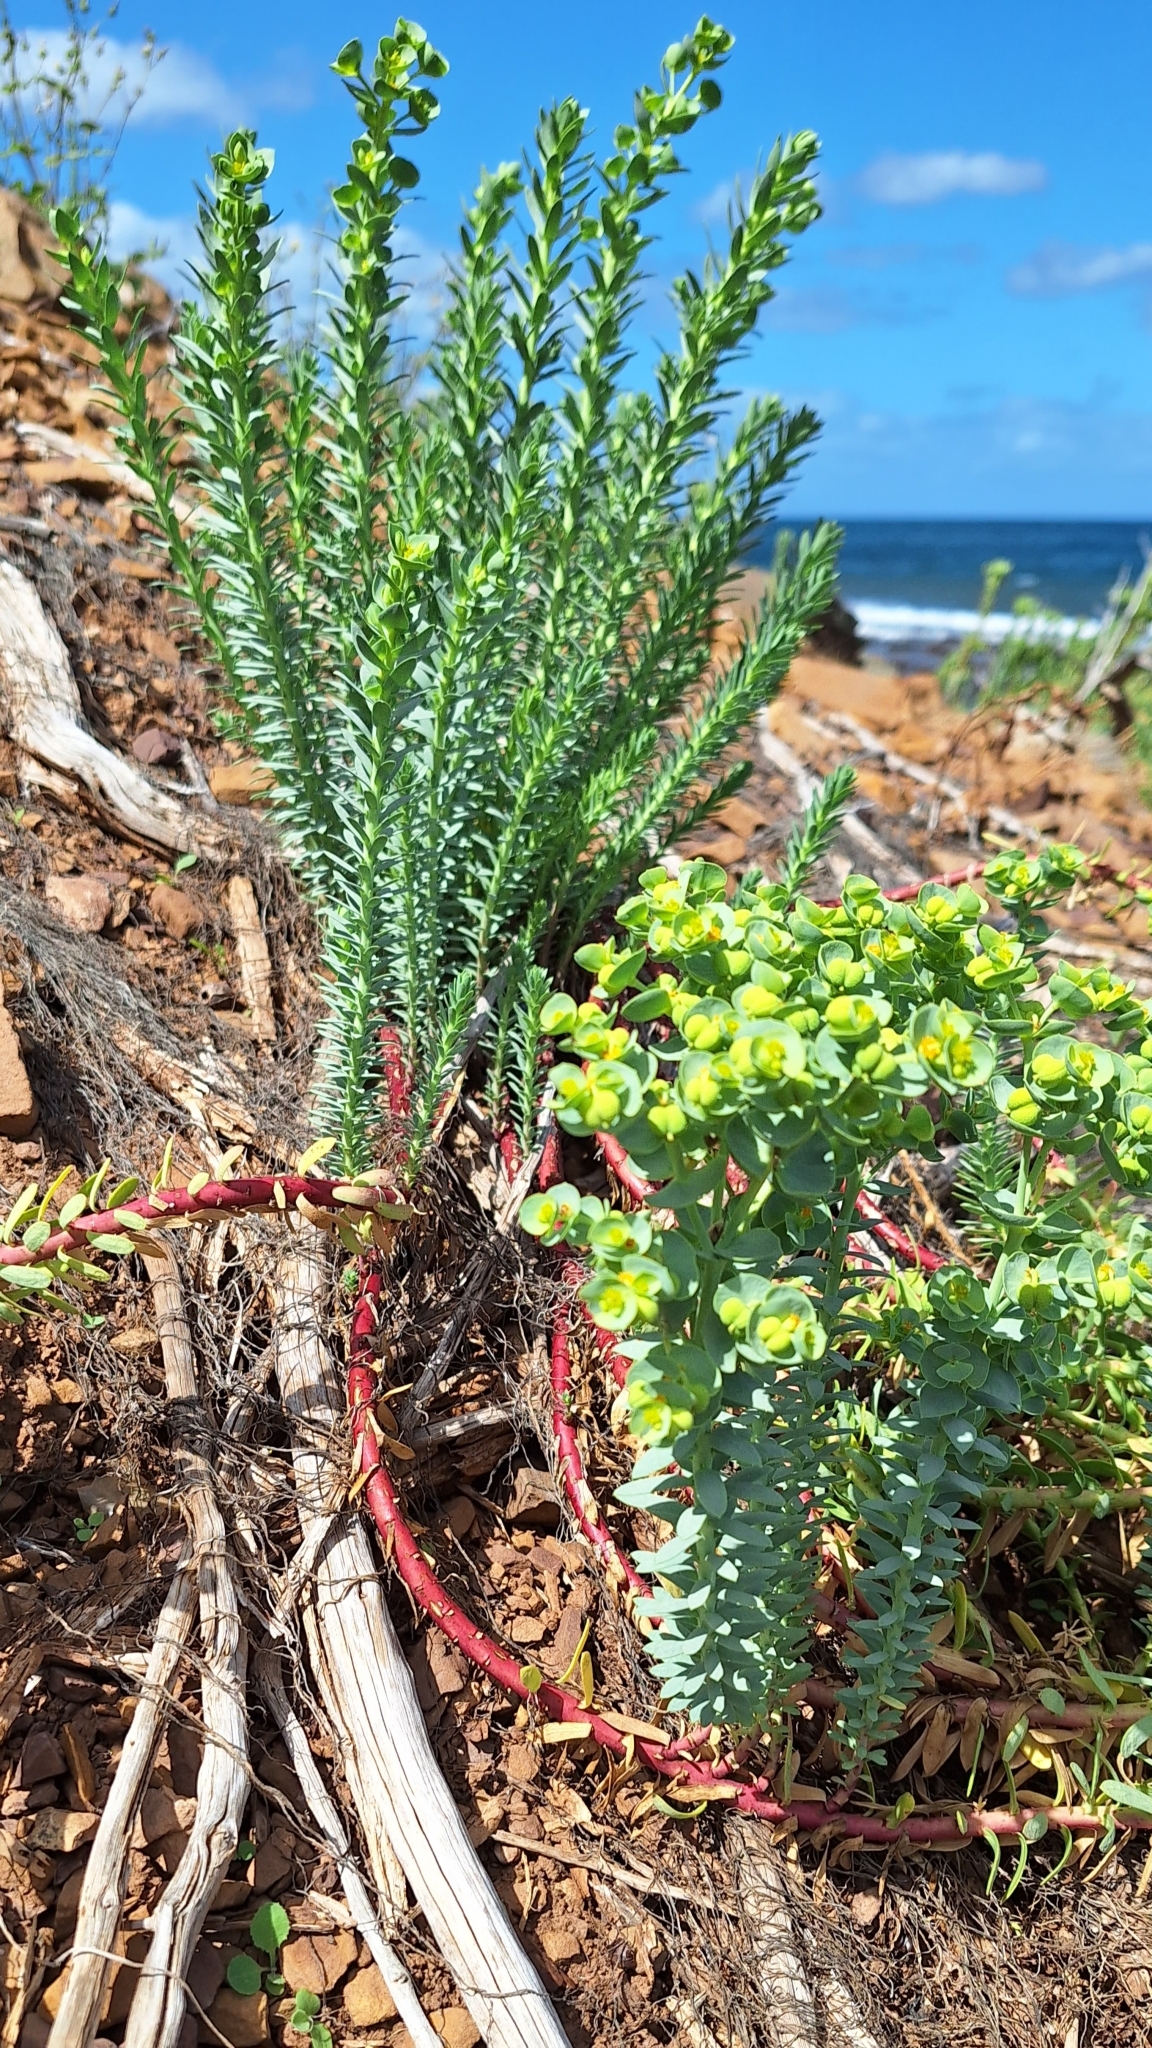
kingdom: Plantae
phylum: Tracheophyta
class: Magnoliopsida
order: Malpighiales
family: Euphorbiaceae
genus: Euphorbia
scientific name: Euphorbia paralias
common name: Sea spurge
